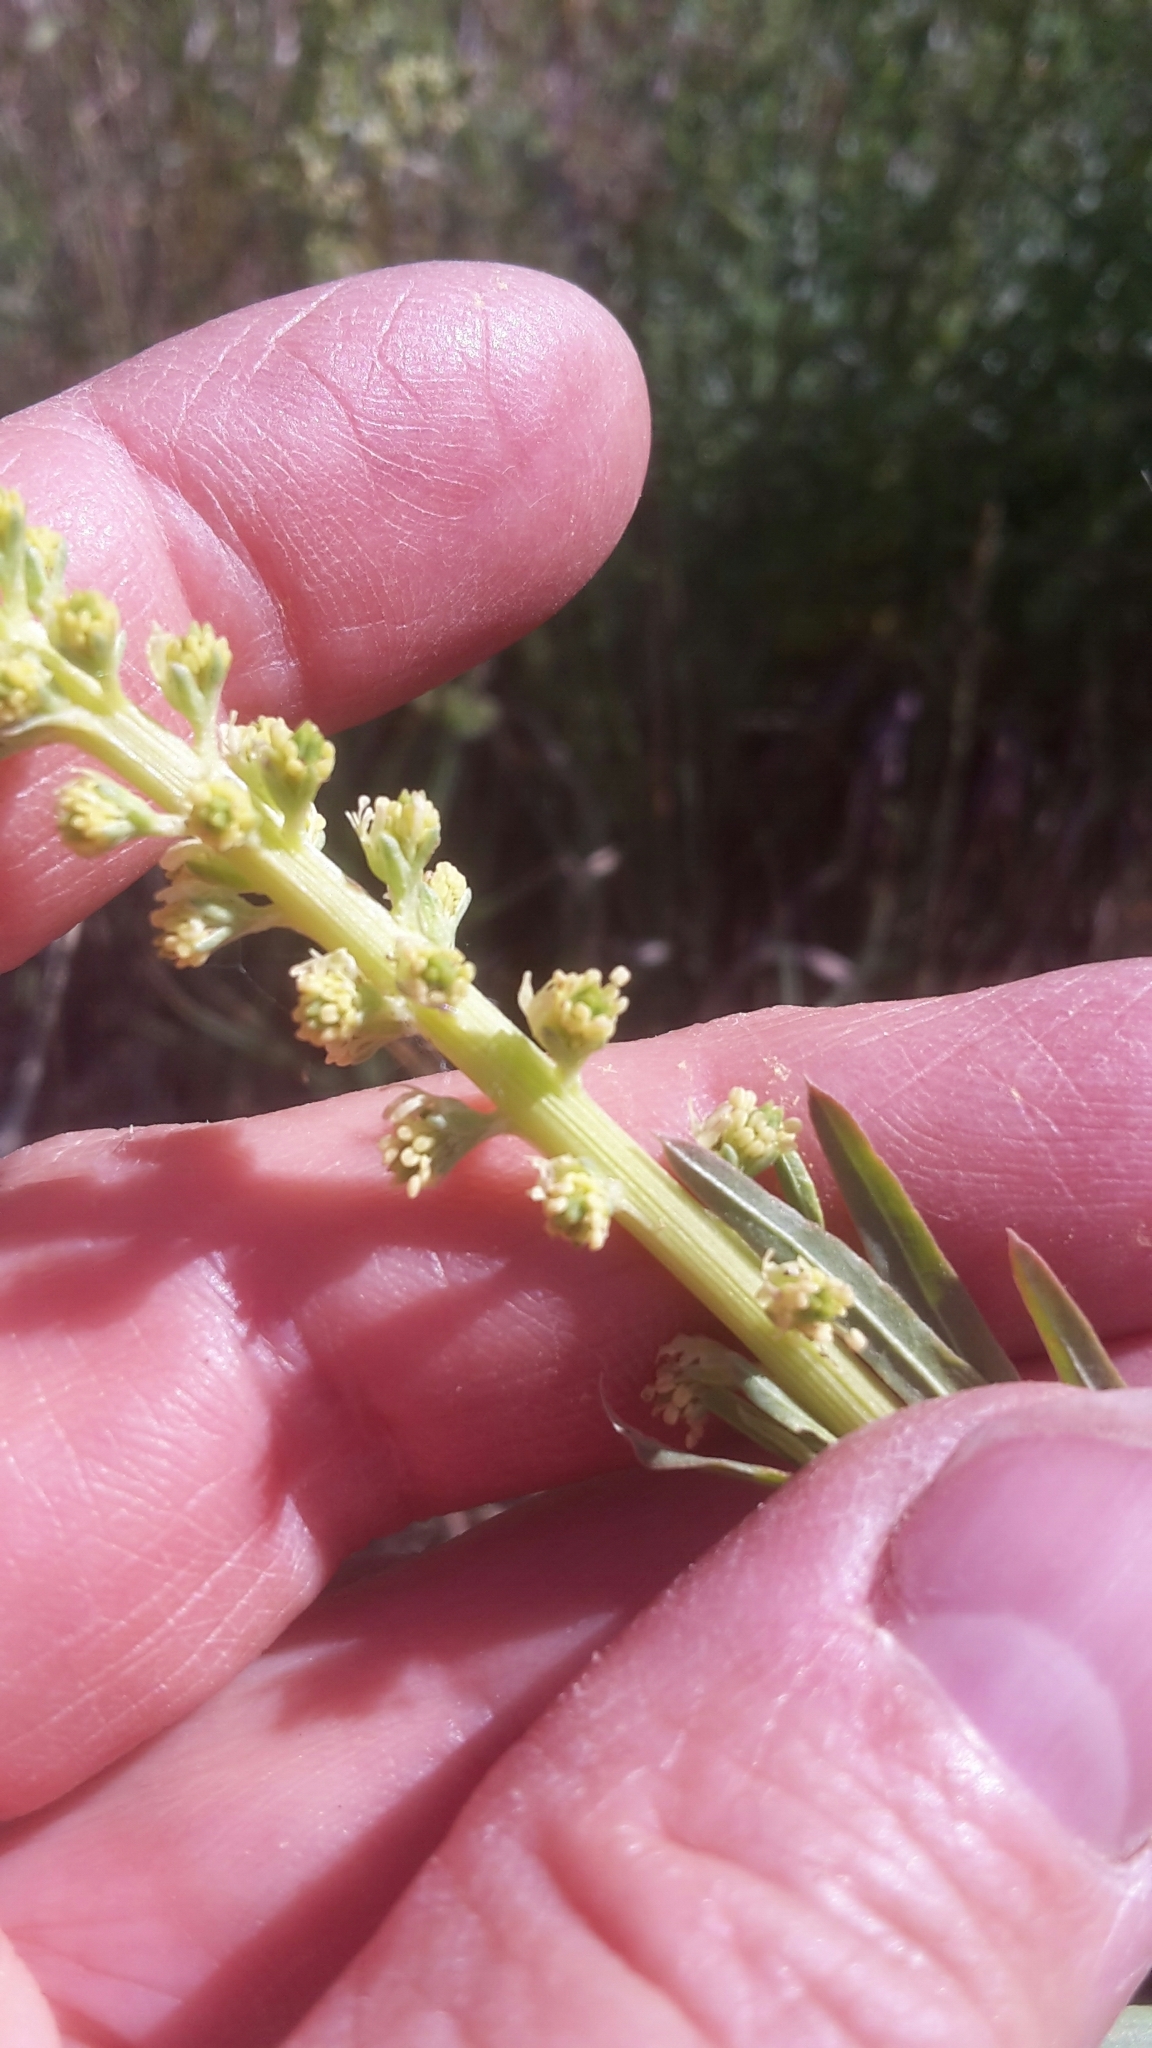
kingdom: Plantae
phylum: Tracheophyta
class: Magnoliopsida
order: Brassicales
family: Resedaceae
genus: Reseda
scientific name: Reseda luteola
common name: Weld
